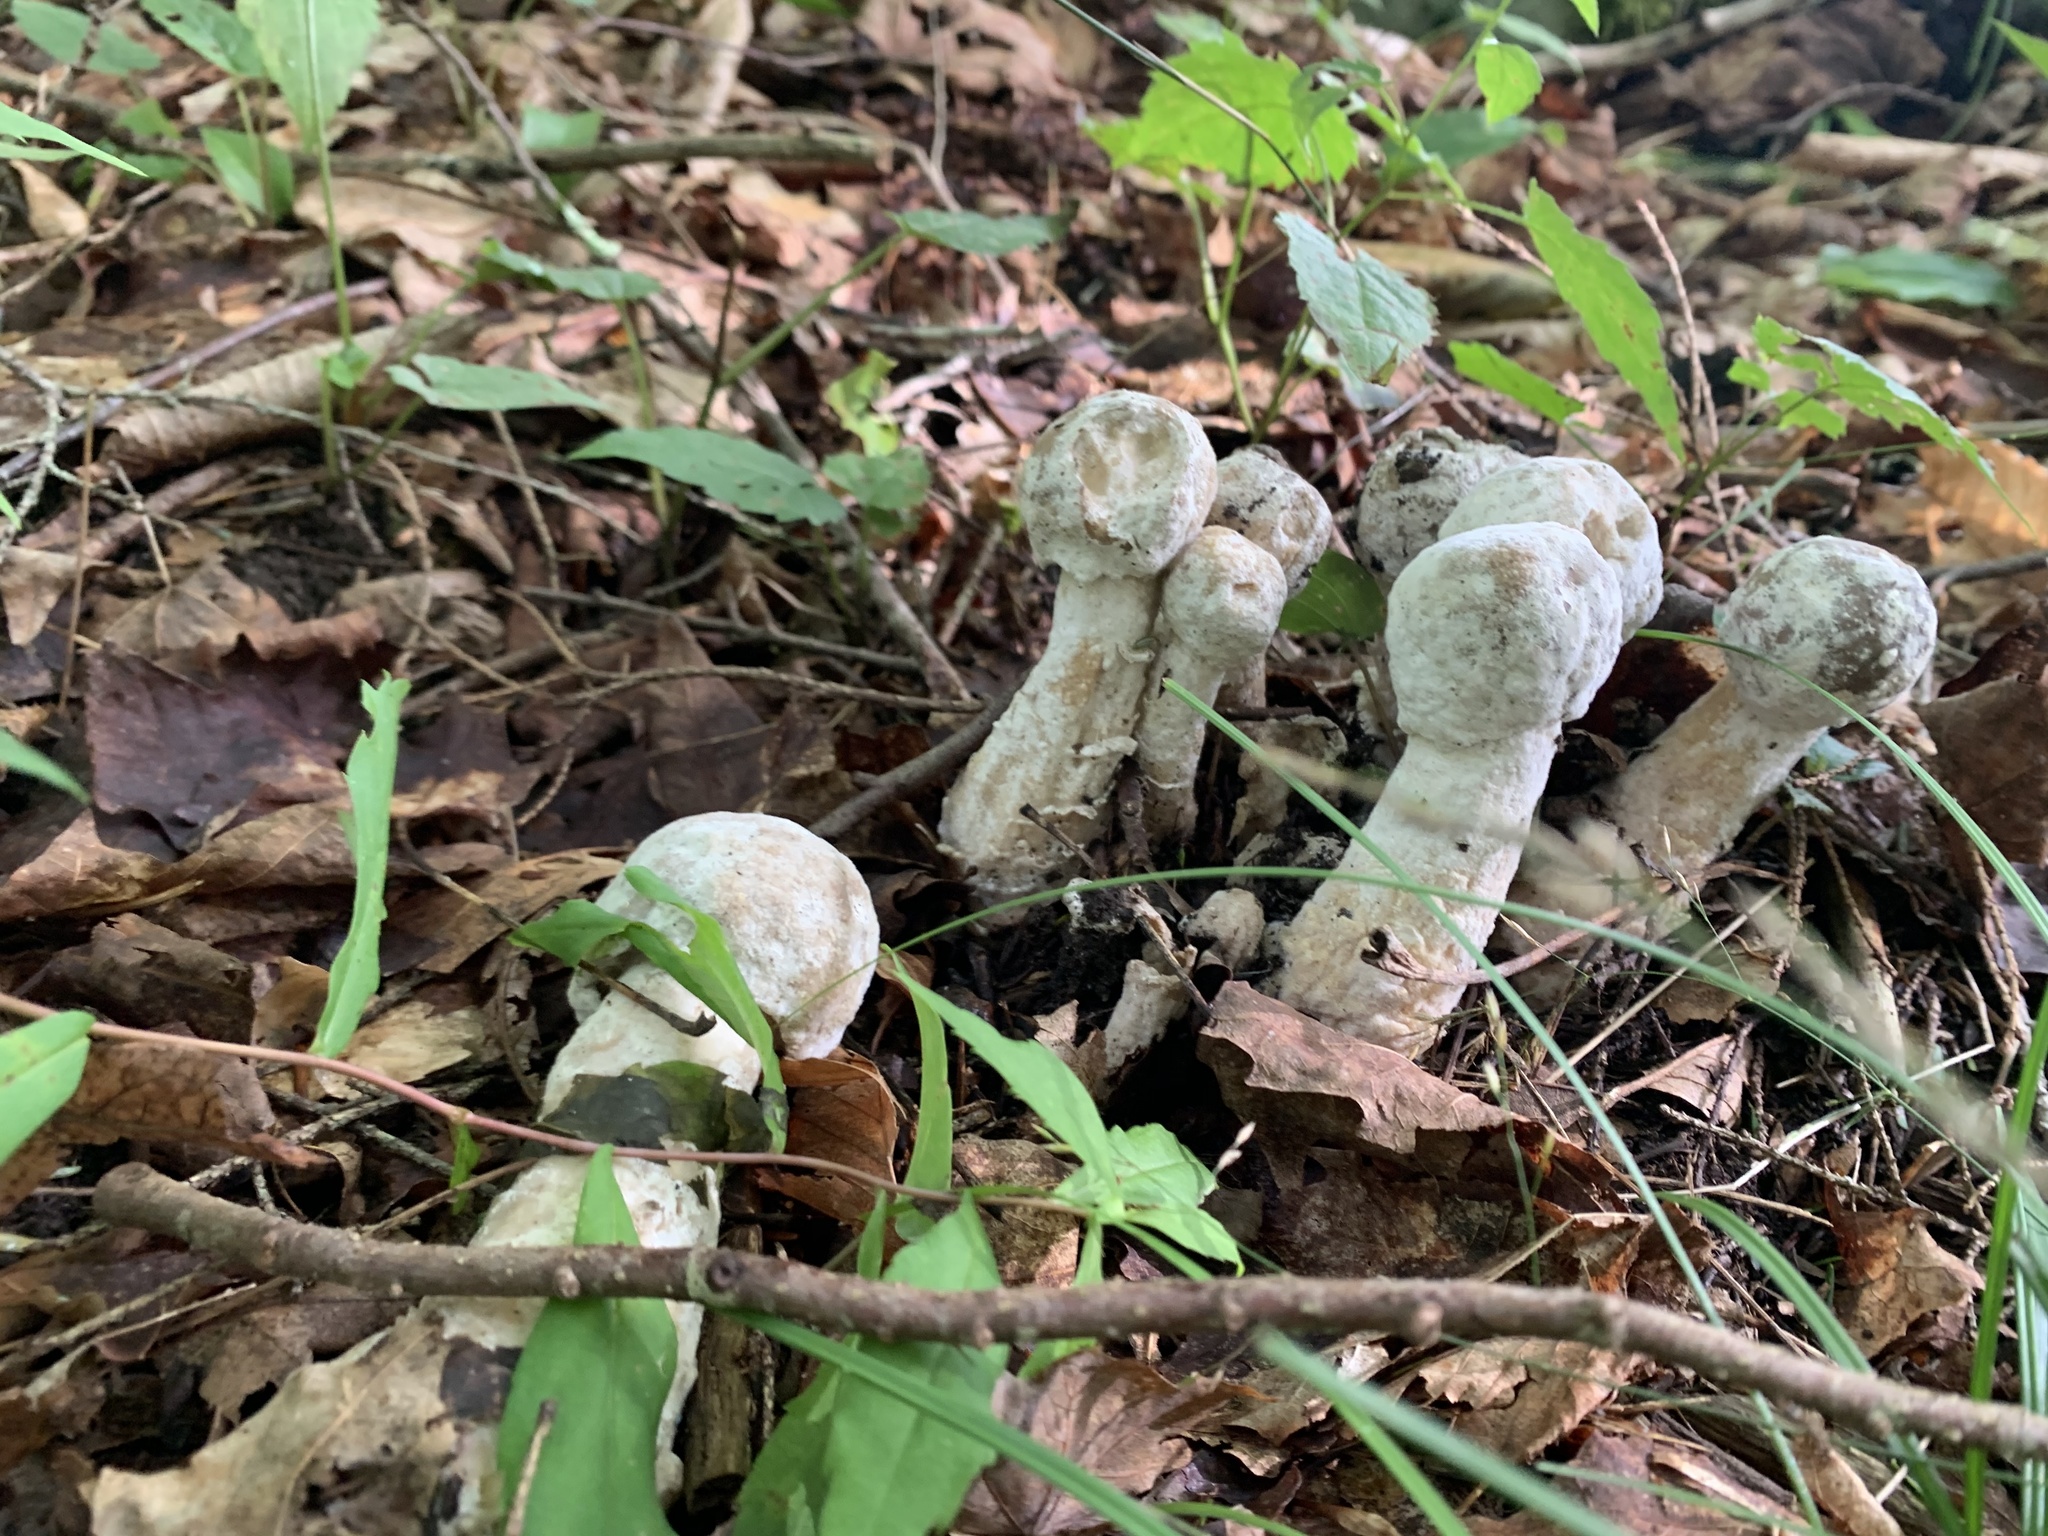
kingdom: Fungi
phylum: Ascomycota
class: Sordariomycetes
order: Hypocreales
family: Hypocreaceae
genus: Hypomyces
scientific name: Hypomyces hyalinus
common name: Amanita mold
